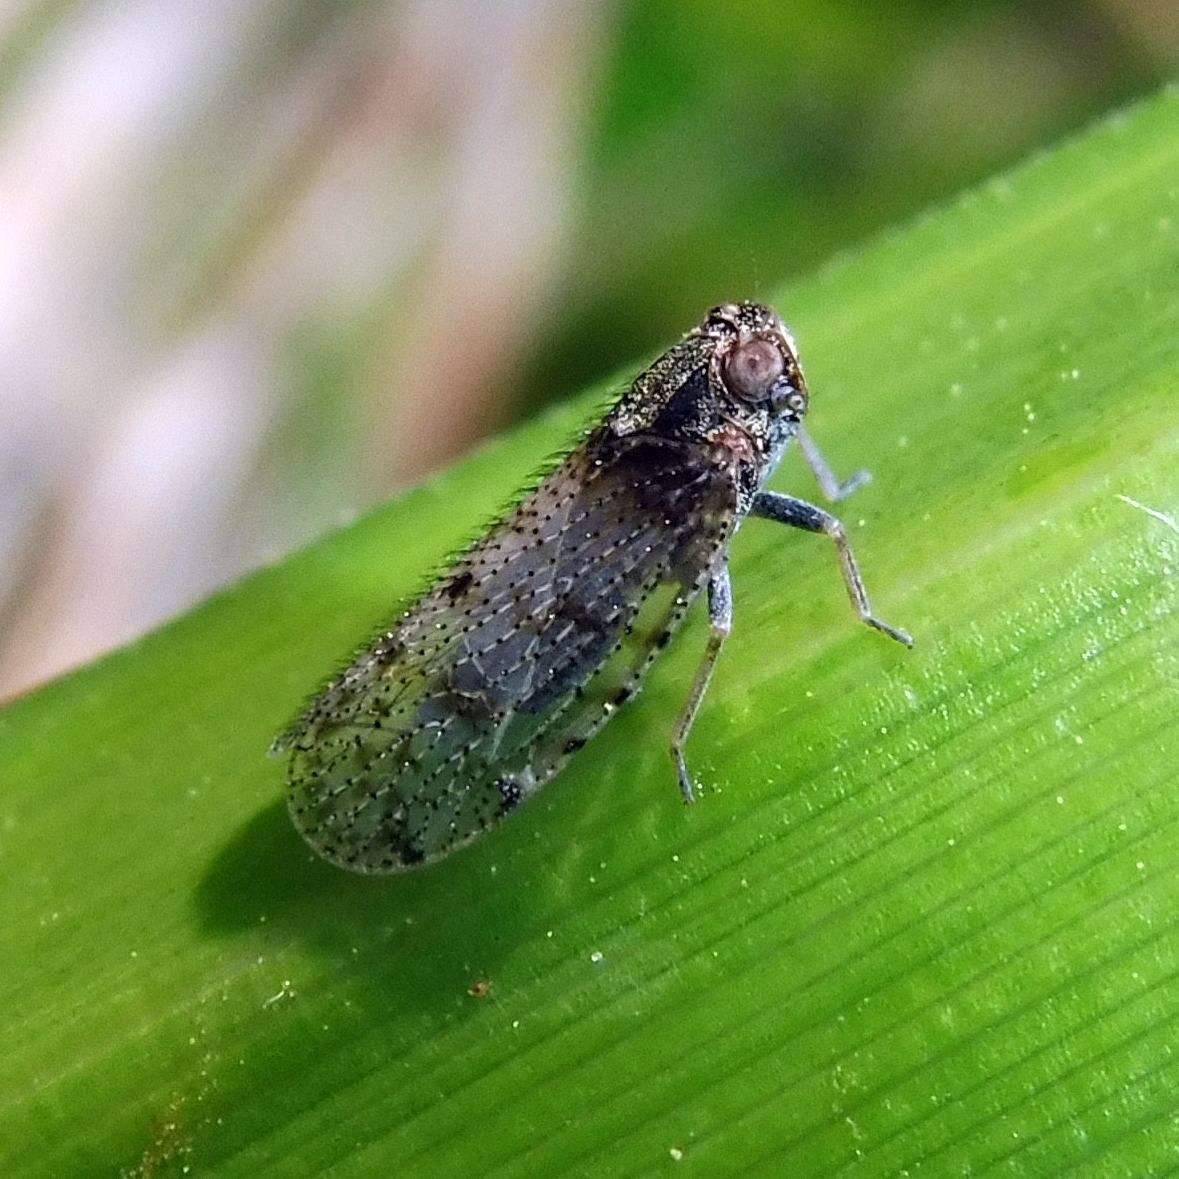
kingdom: Animalia
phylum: Arthropoda
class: Insecta
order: Hemiptera
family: Cixiidae
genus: Tachycixius
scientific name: Tachycixius pilosus
